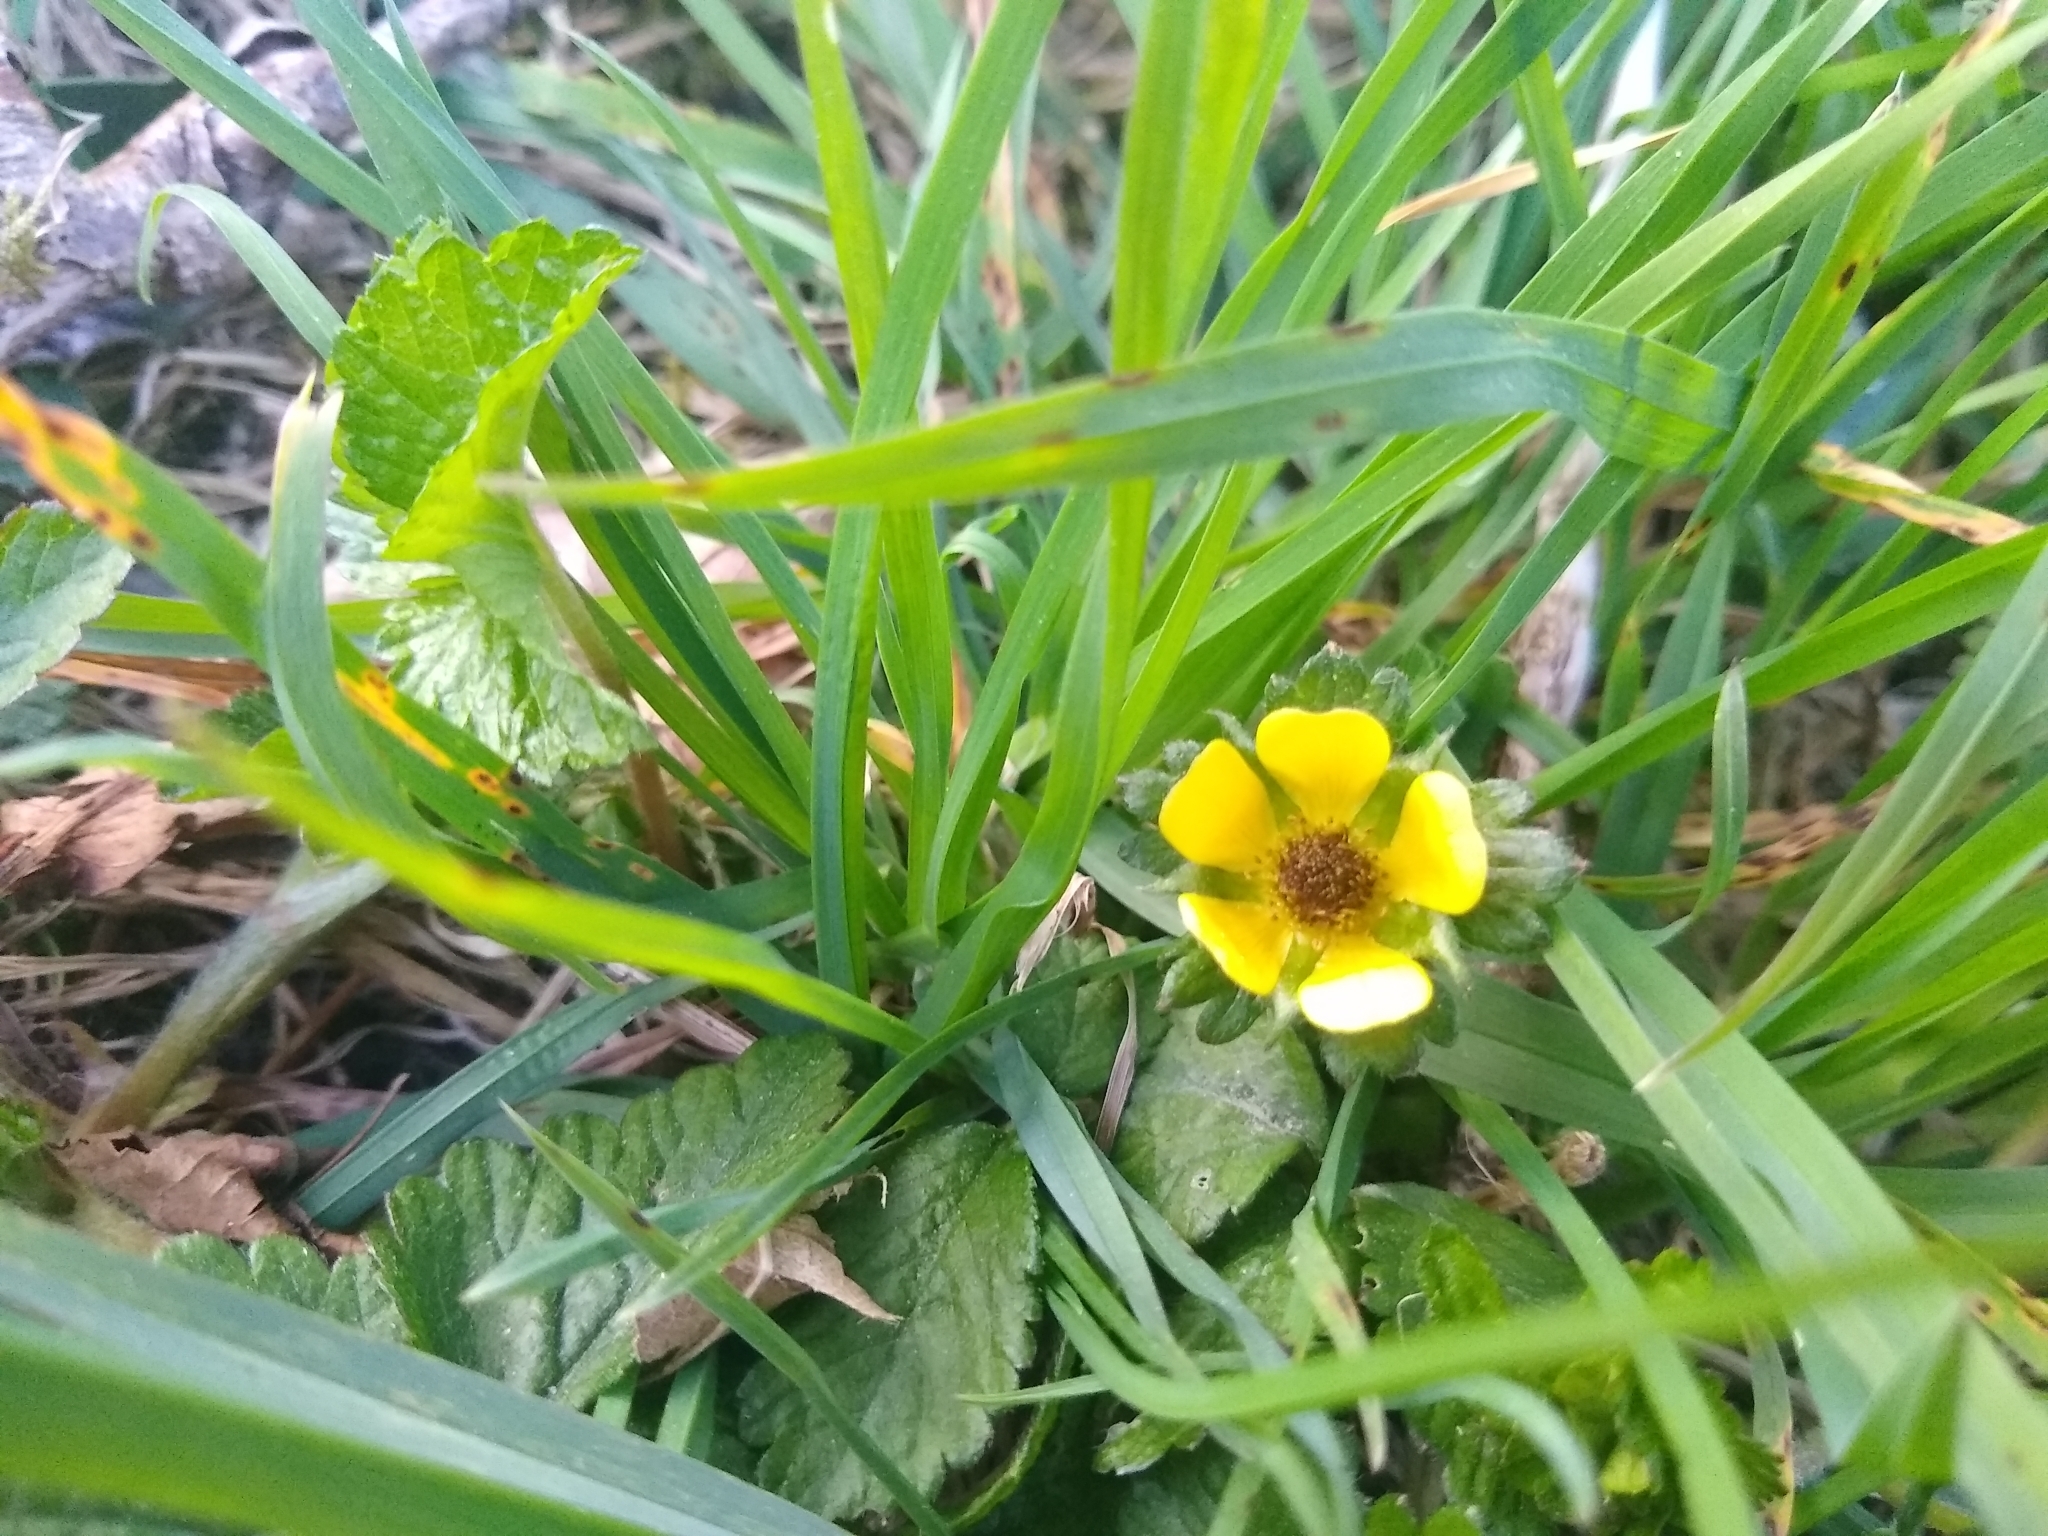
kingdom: Plantae
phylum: Tracheophyta
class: Magnoliopsida
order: Rosales
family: Rosaceae
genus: Potentilla
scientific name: Potentilla indica
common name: Yellow-flowered strawberry
